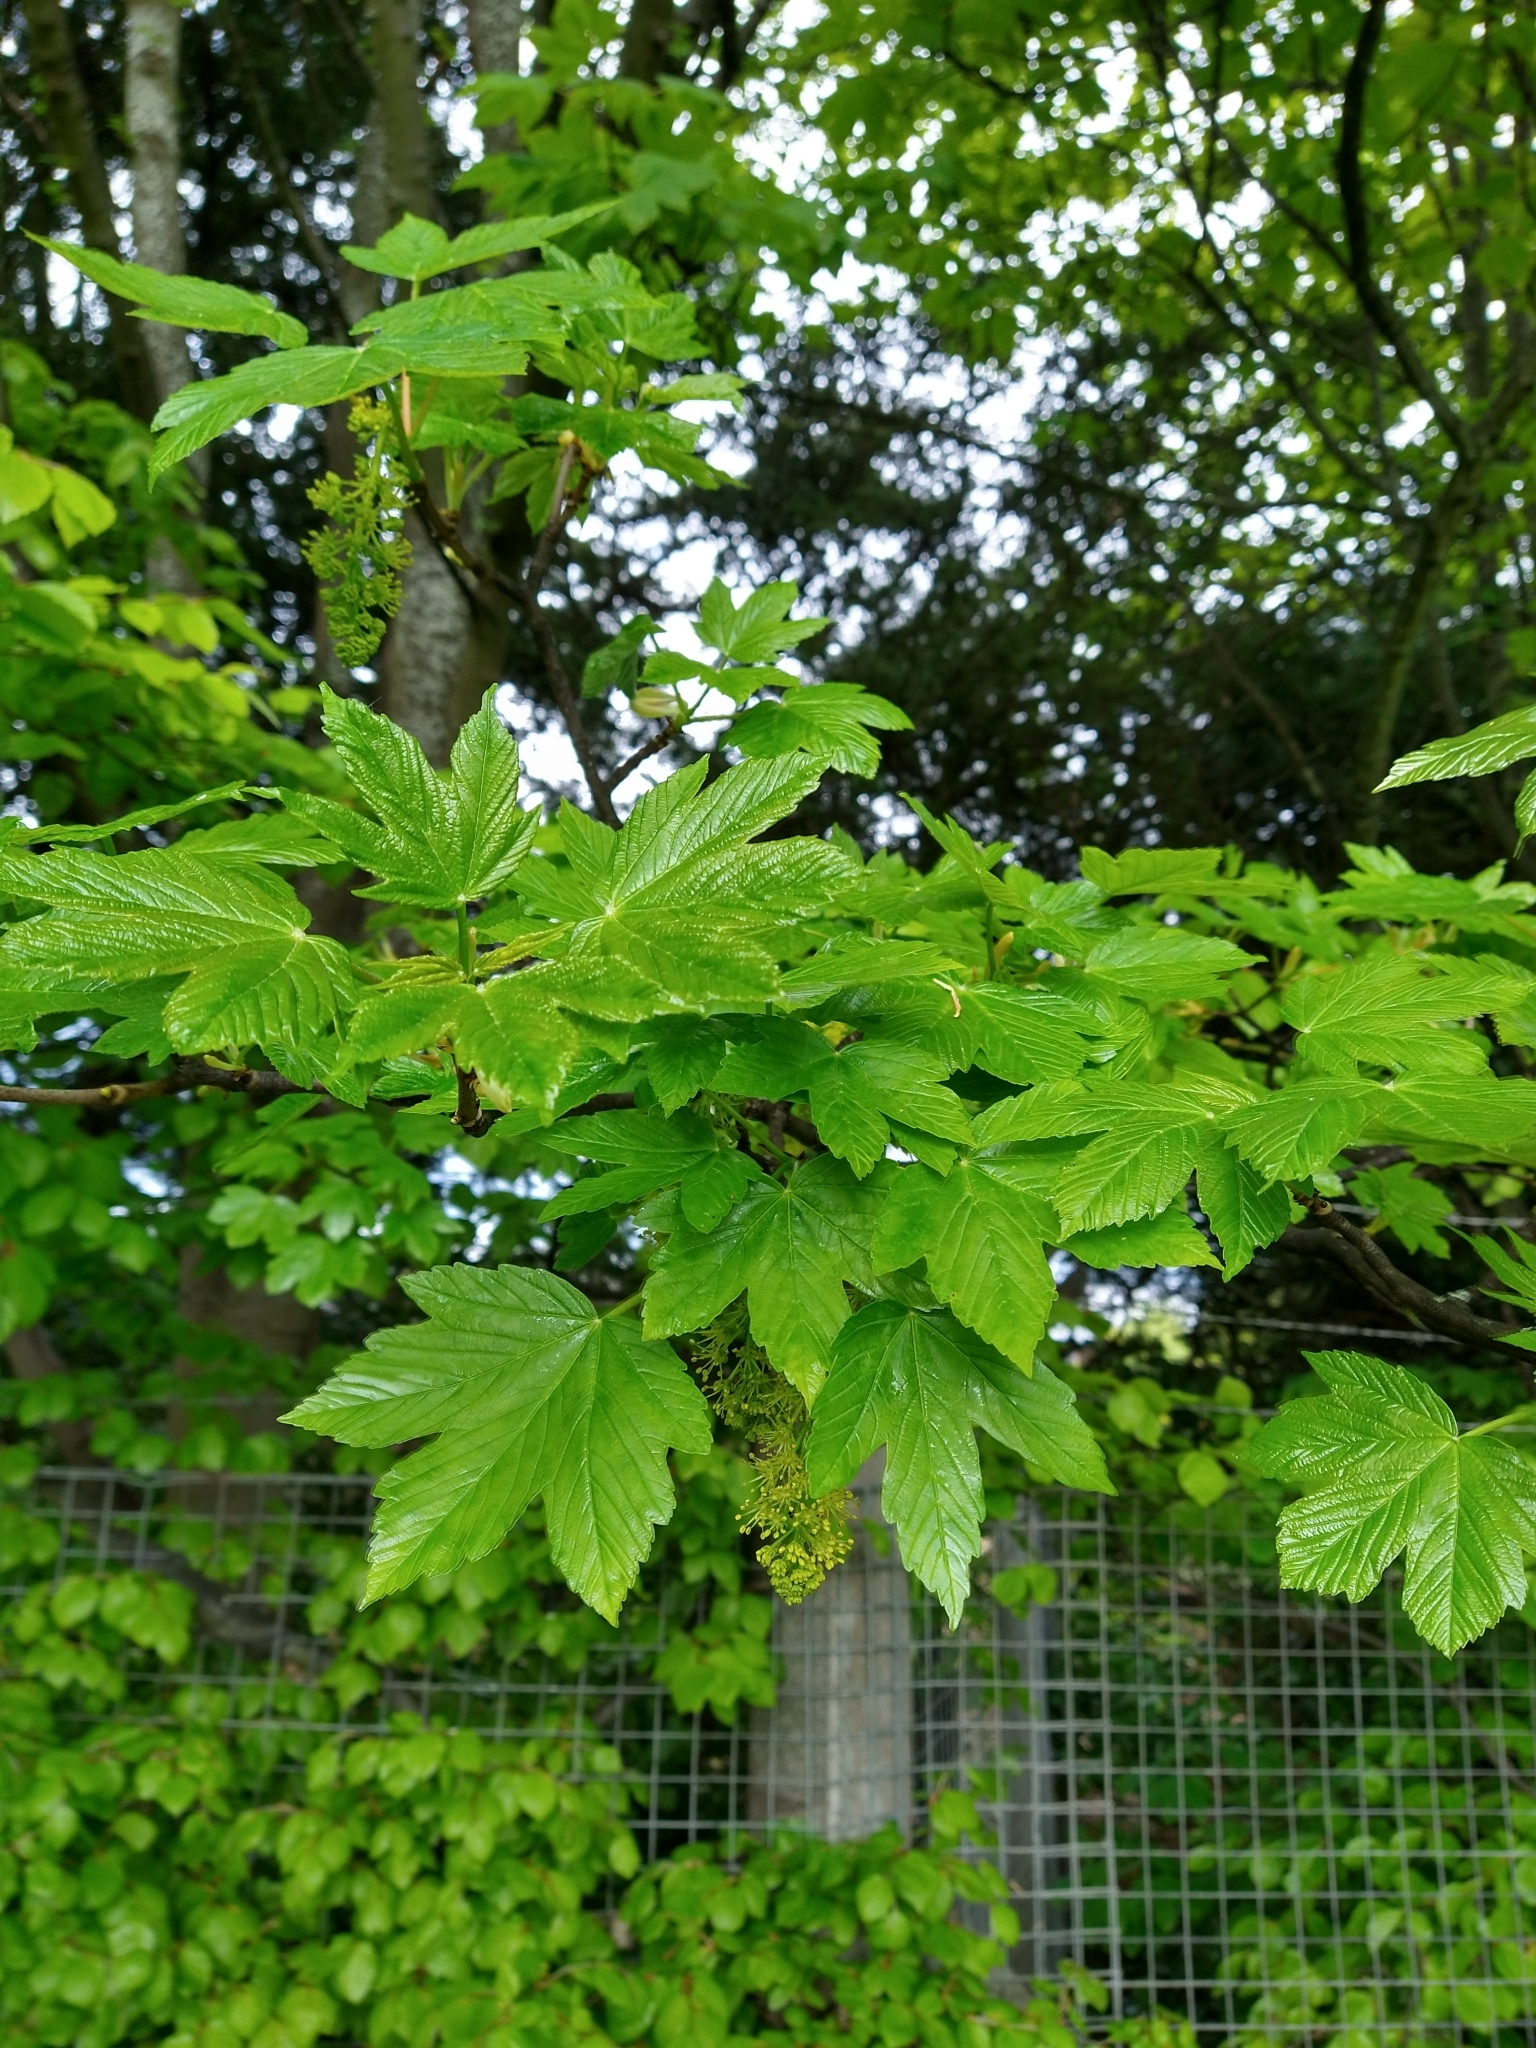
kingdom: Plantae
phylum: Tracheophyta
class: Magnoliopsida
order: Sapindales
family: Sapindaceae
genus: Acer
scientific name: Acer pseudoplatanus
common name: Sycamore
